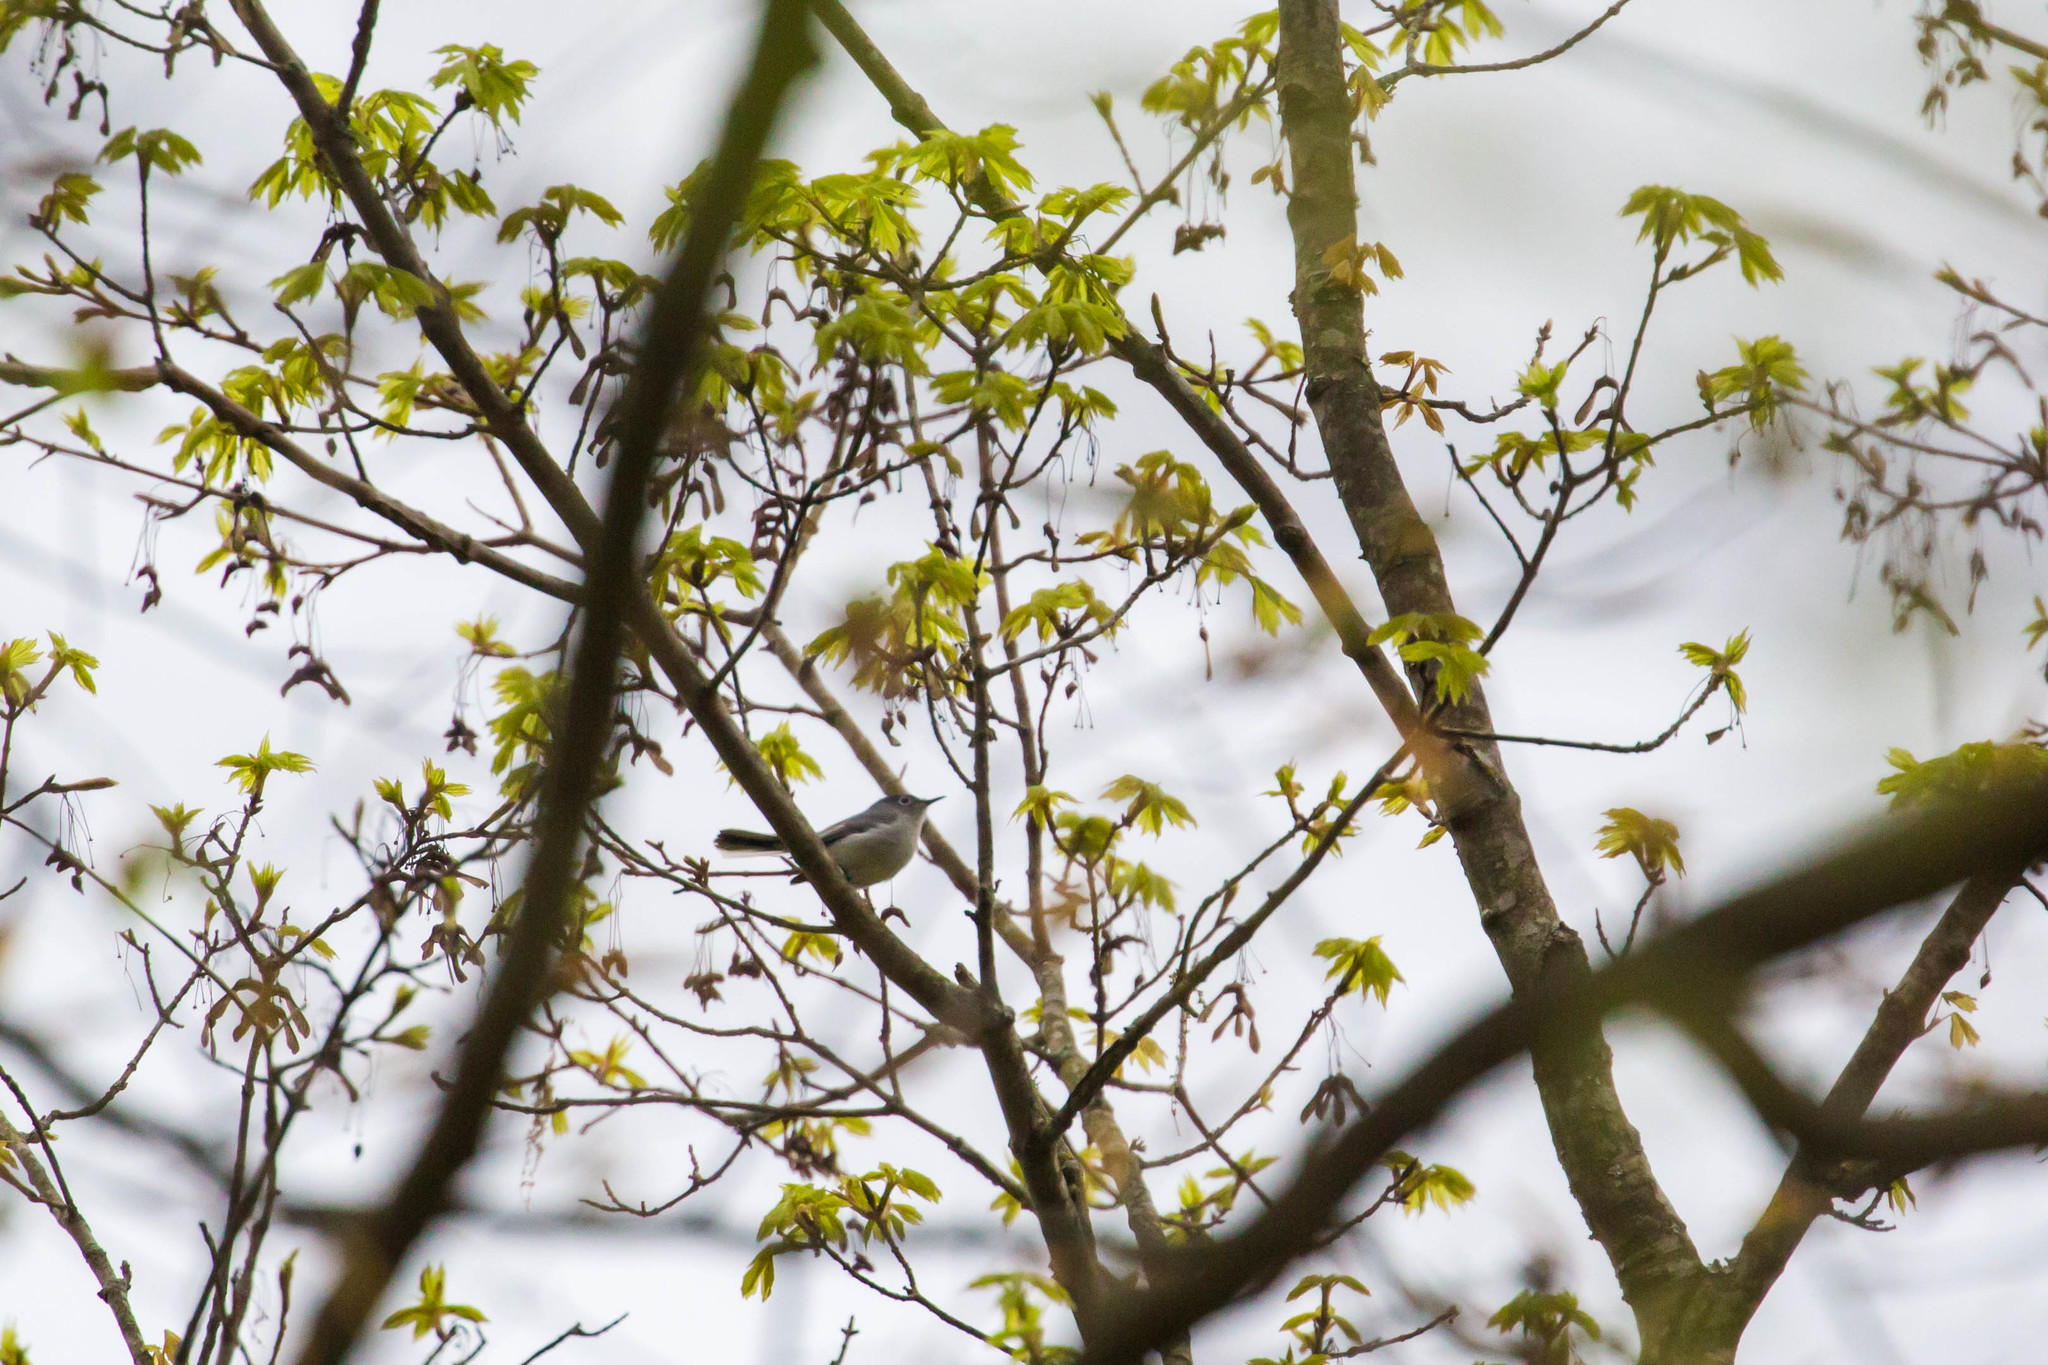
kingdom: Animalia
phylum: Chordata
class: Aves
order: Passeriformes
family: Polioptilidae
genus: Polioptila
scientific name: Polioptila caerulea
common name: Blue-gray gnatcatcher
